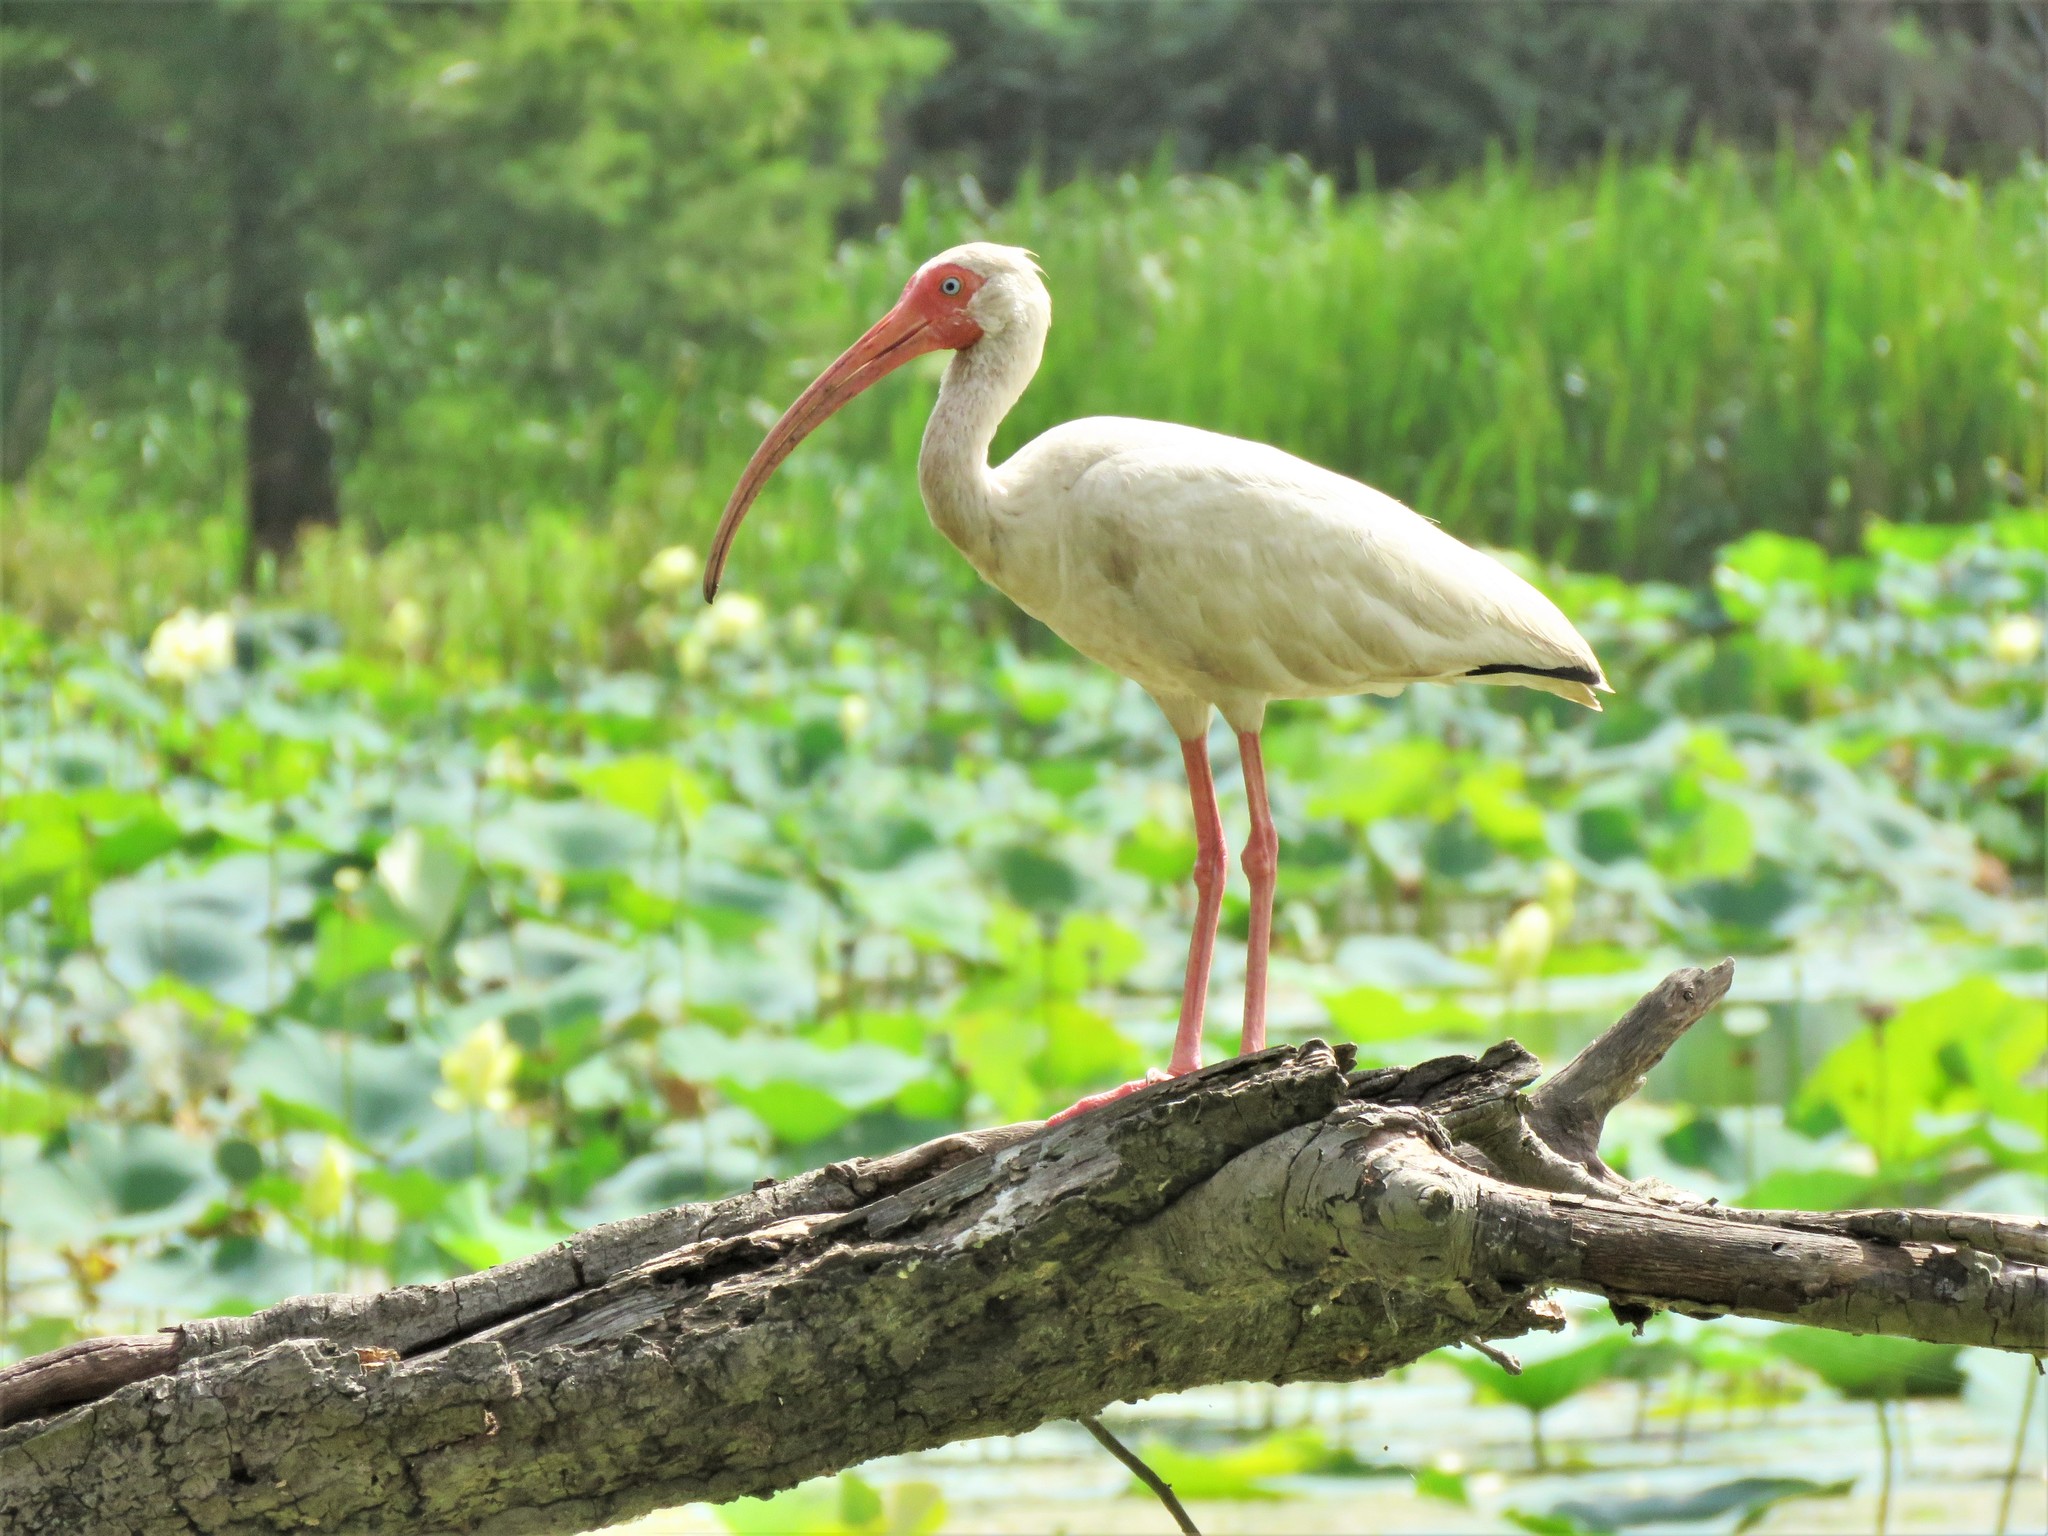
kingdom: Animalia
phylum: Chordata
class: Aves
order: Pelecaniformes
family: Threskiornithidae
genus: Eudocimus
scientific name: Eudocimus albus
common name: White ibis
